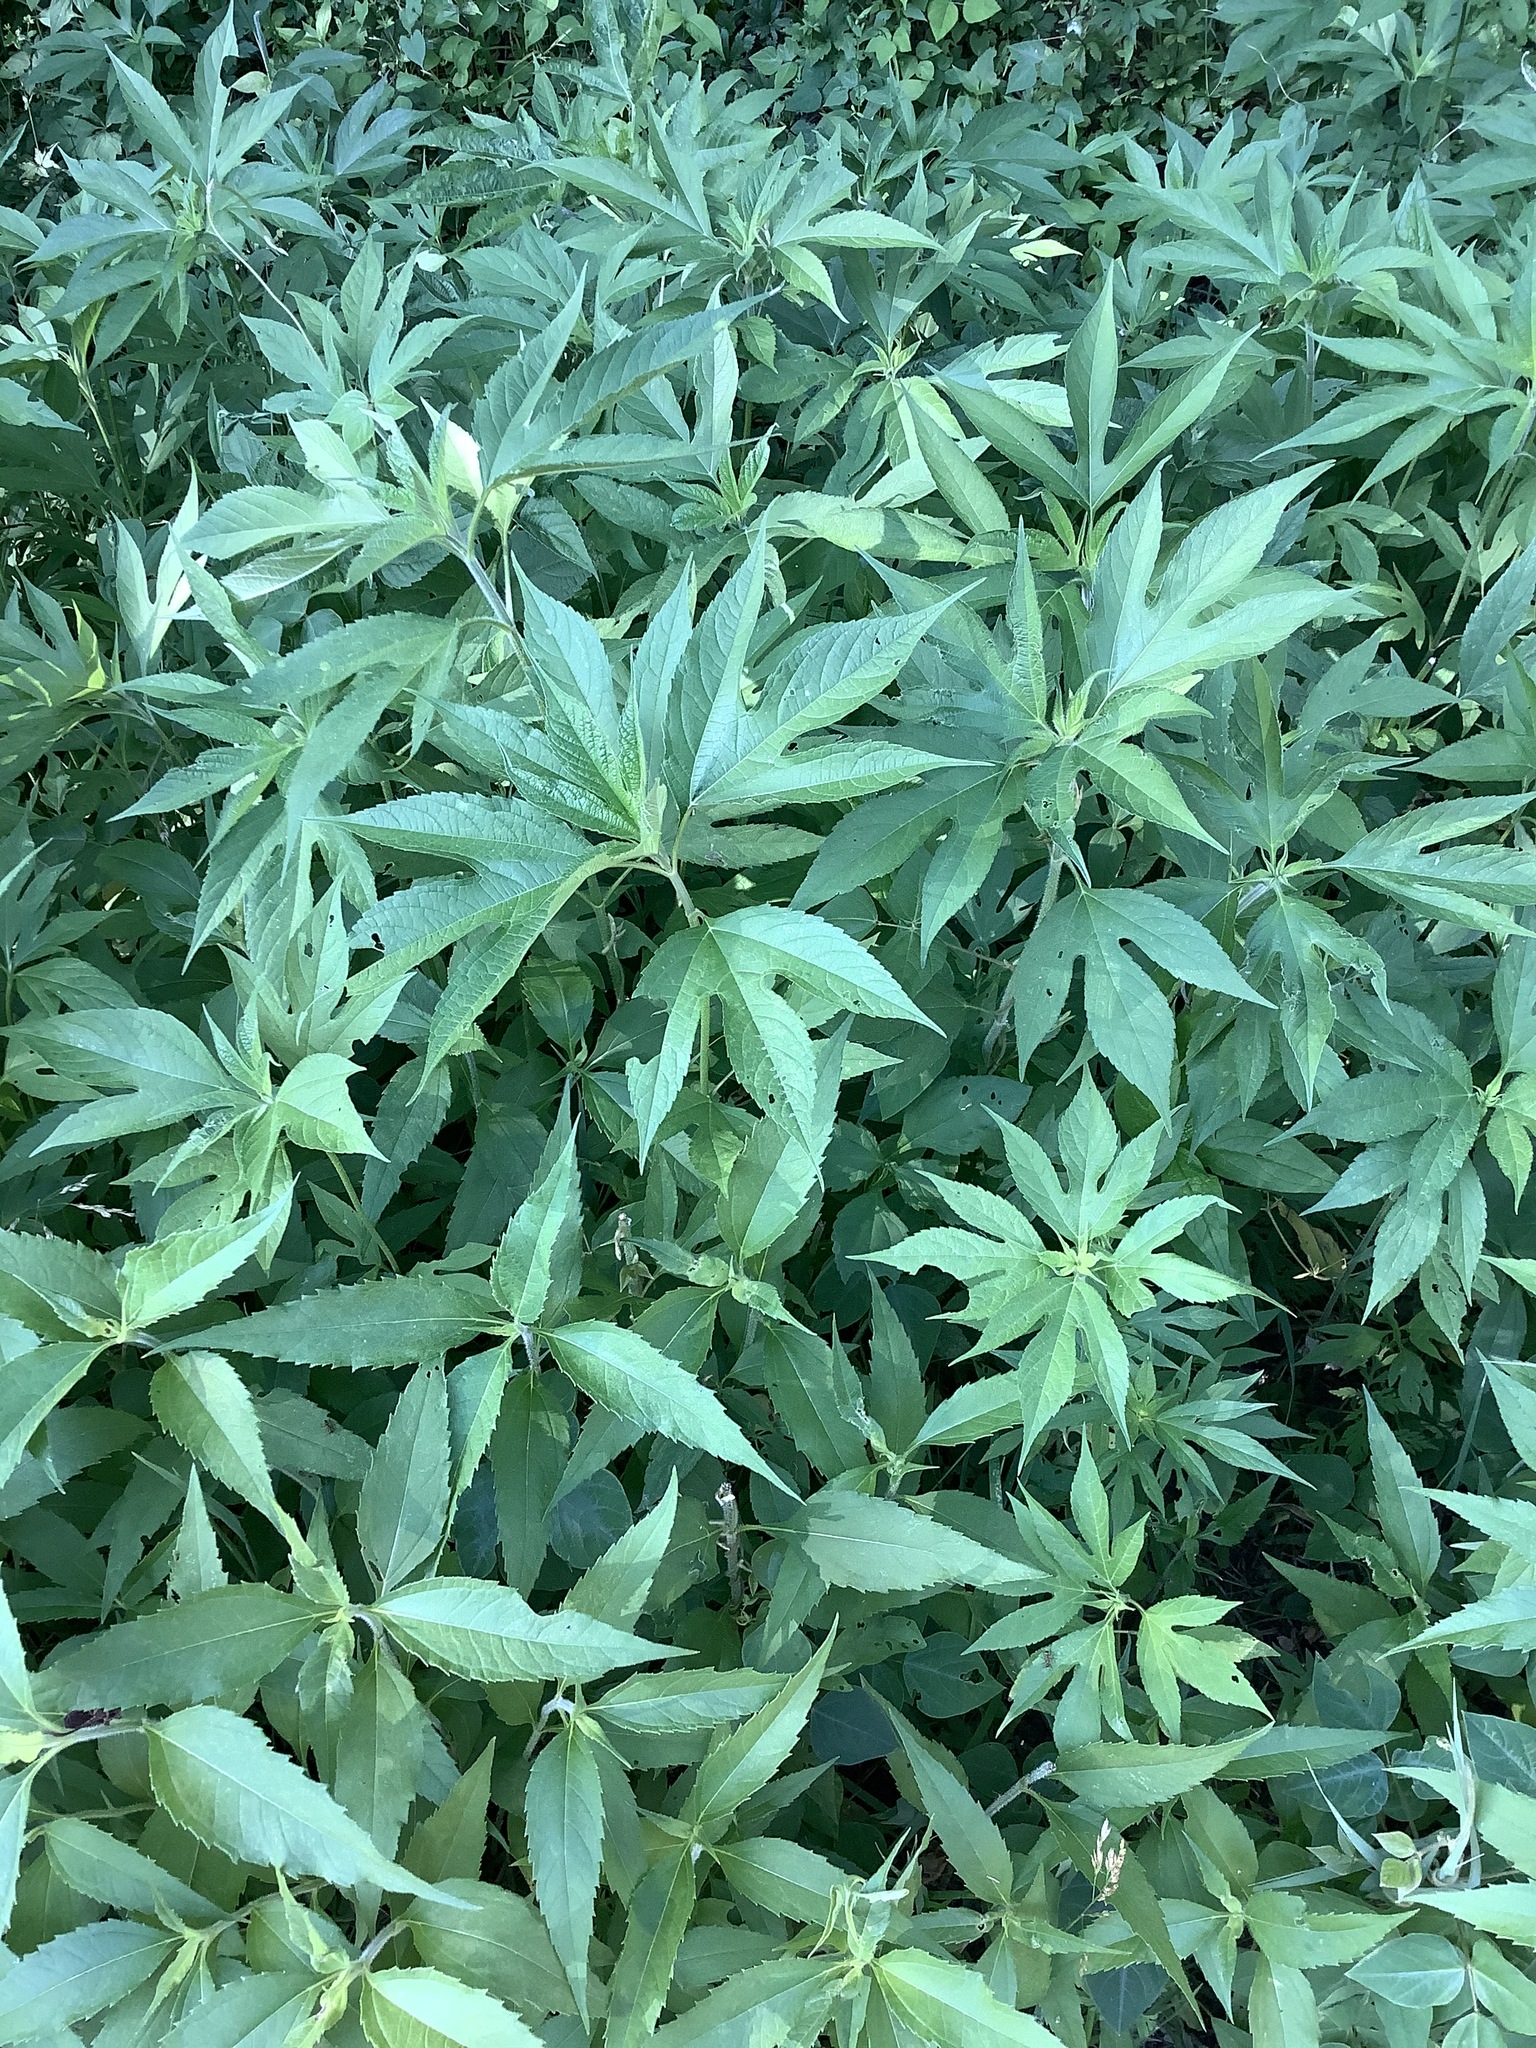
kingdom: Plantae
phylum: Tracheophyta
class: Magnoliopsida
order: Asterales
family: Asteraceae
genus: Ambrosia
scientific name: Ambrosia trifida
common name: Giant ragweed
